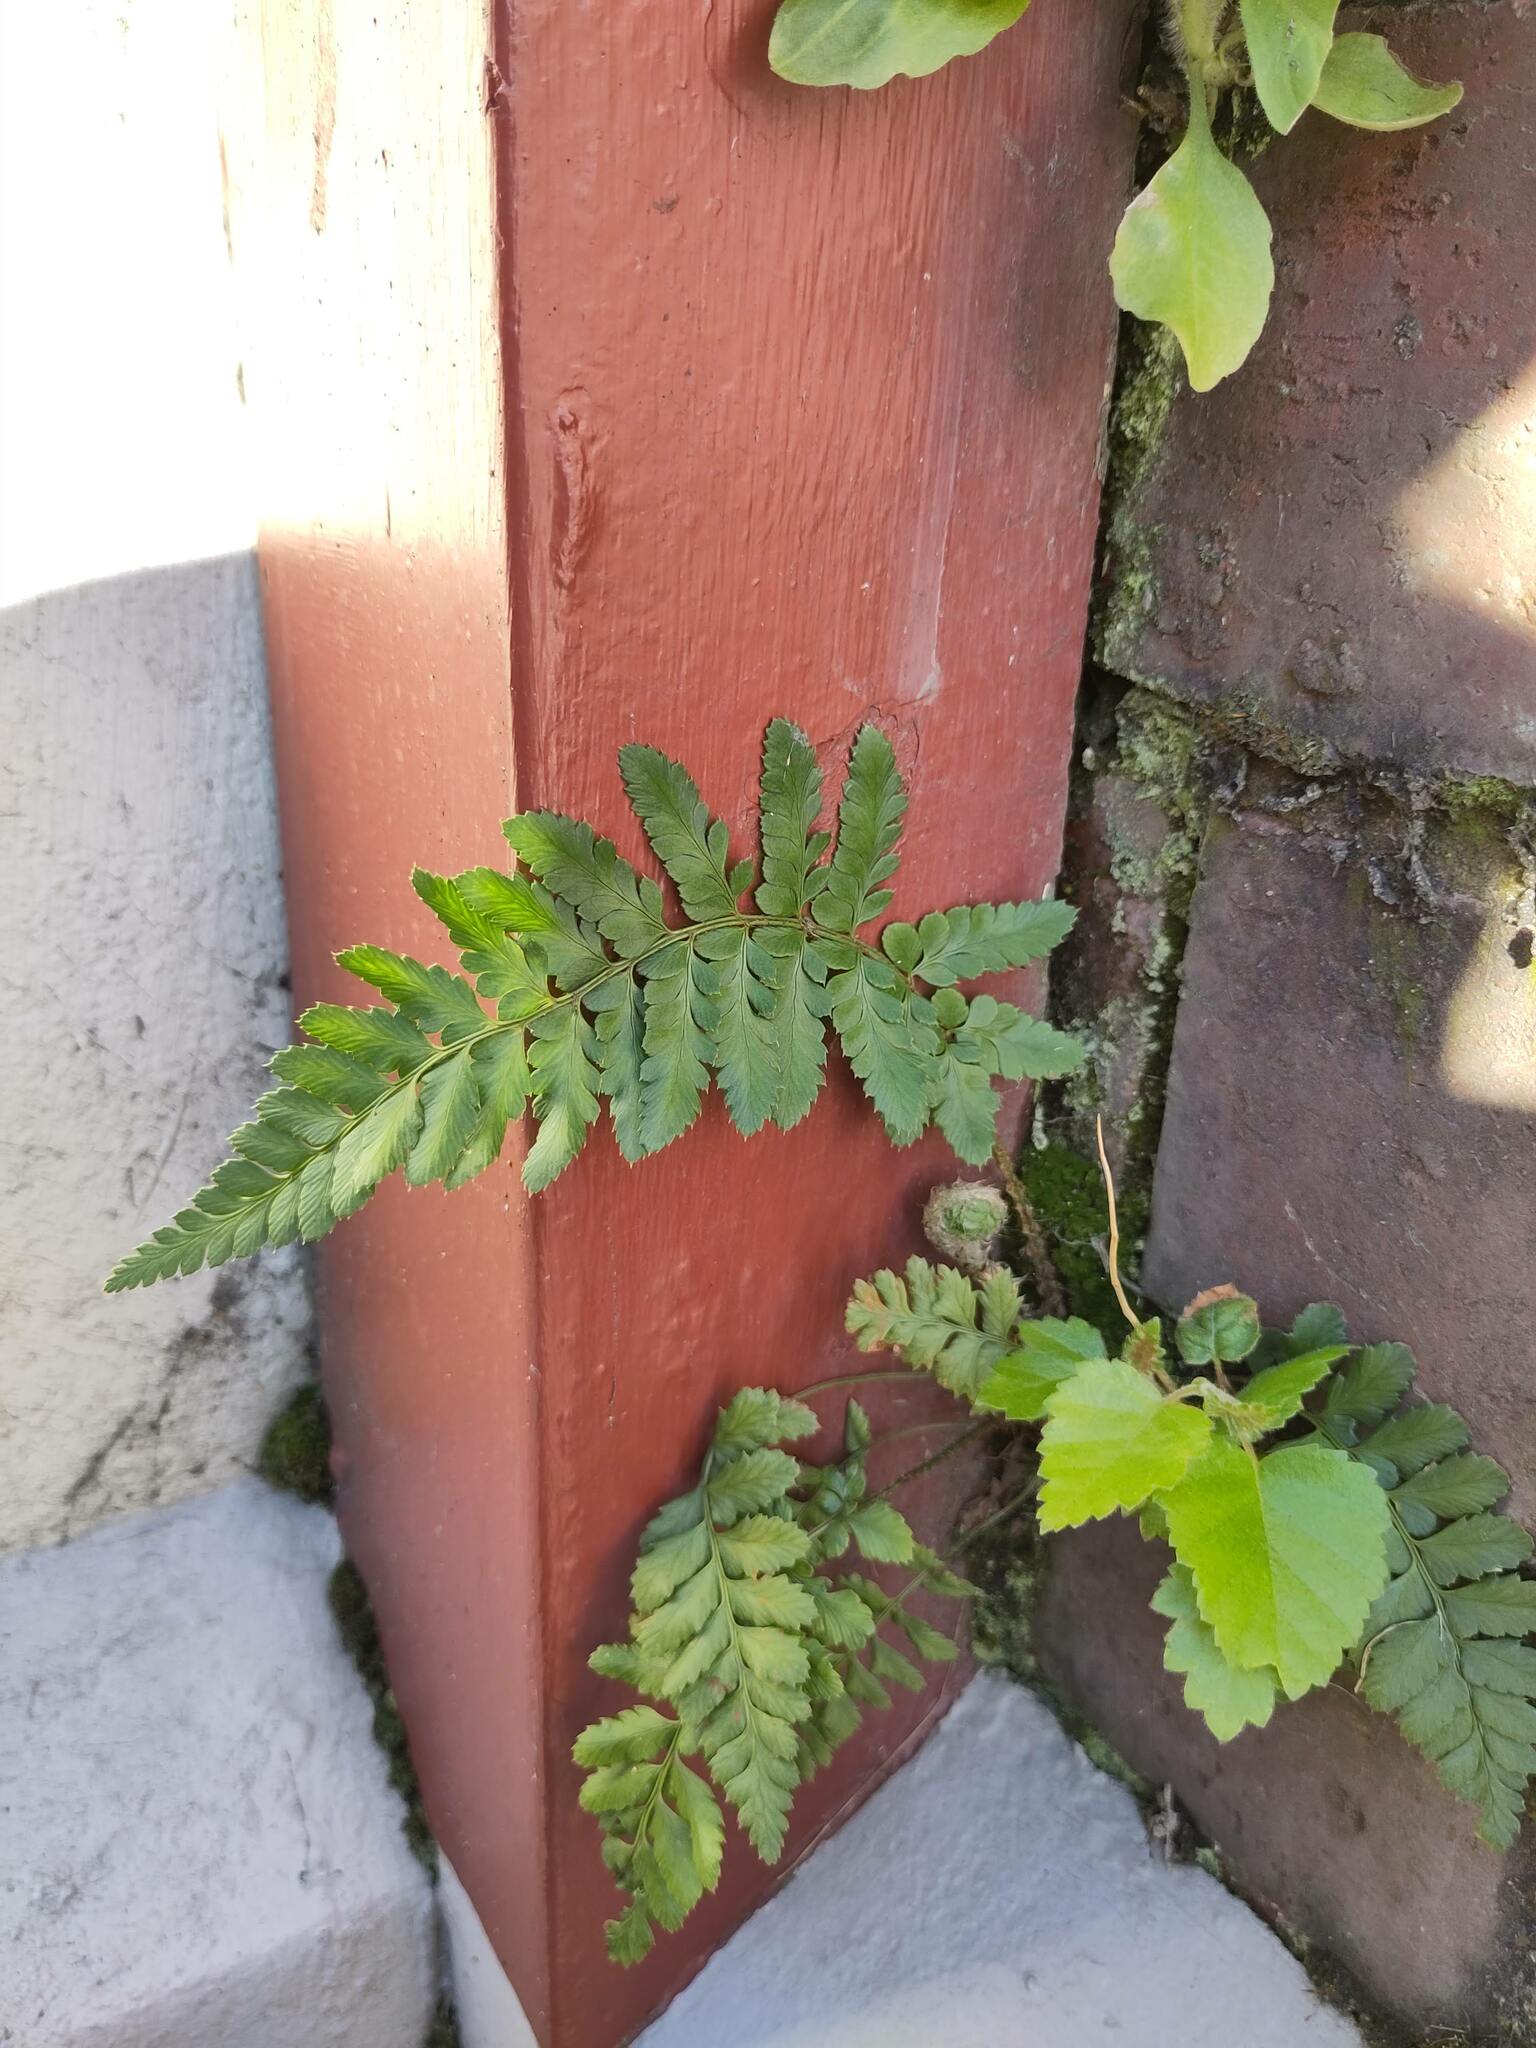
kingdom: Plantae
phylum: Tracheophyta
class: Polypodiopsida
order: Polypodiales
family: Dryopteridaceae
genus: Polystichum
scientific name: Polystichum proliferum
